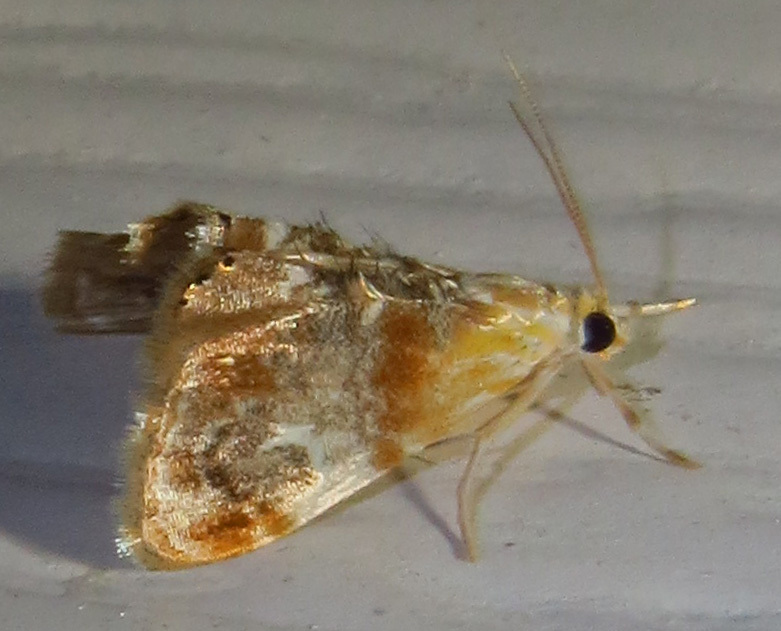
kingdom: Animalia
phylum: Arthropoda
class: Insecta
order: Lepidoptera
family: Crambidae
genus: Dicymolomia
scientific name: Dicymolomia julianalis
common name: Julia's dicymolomia moth
